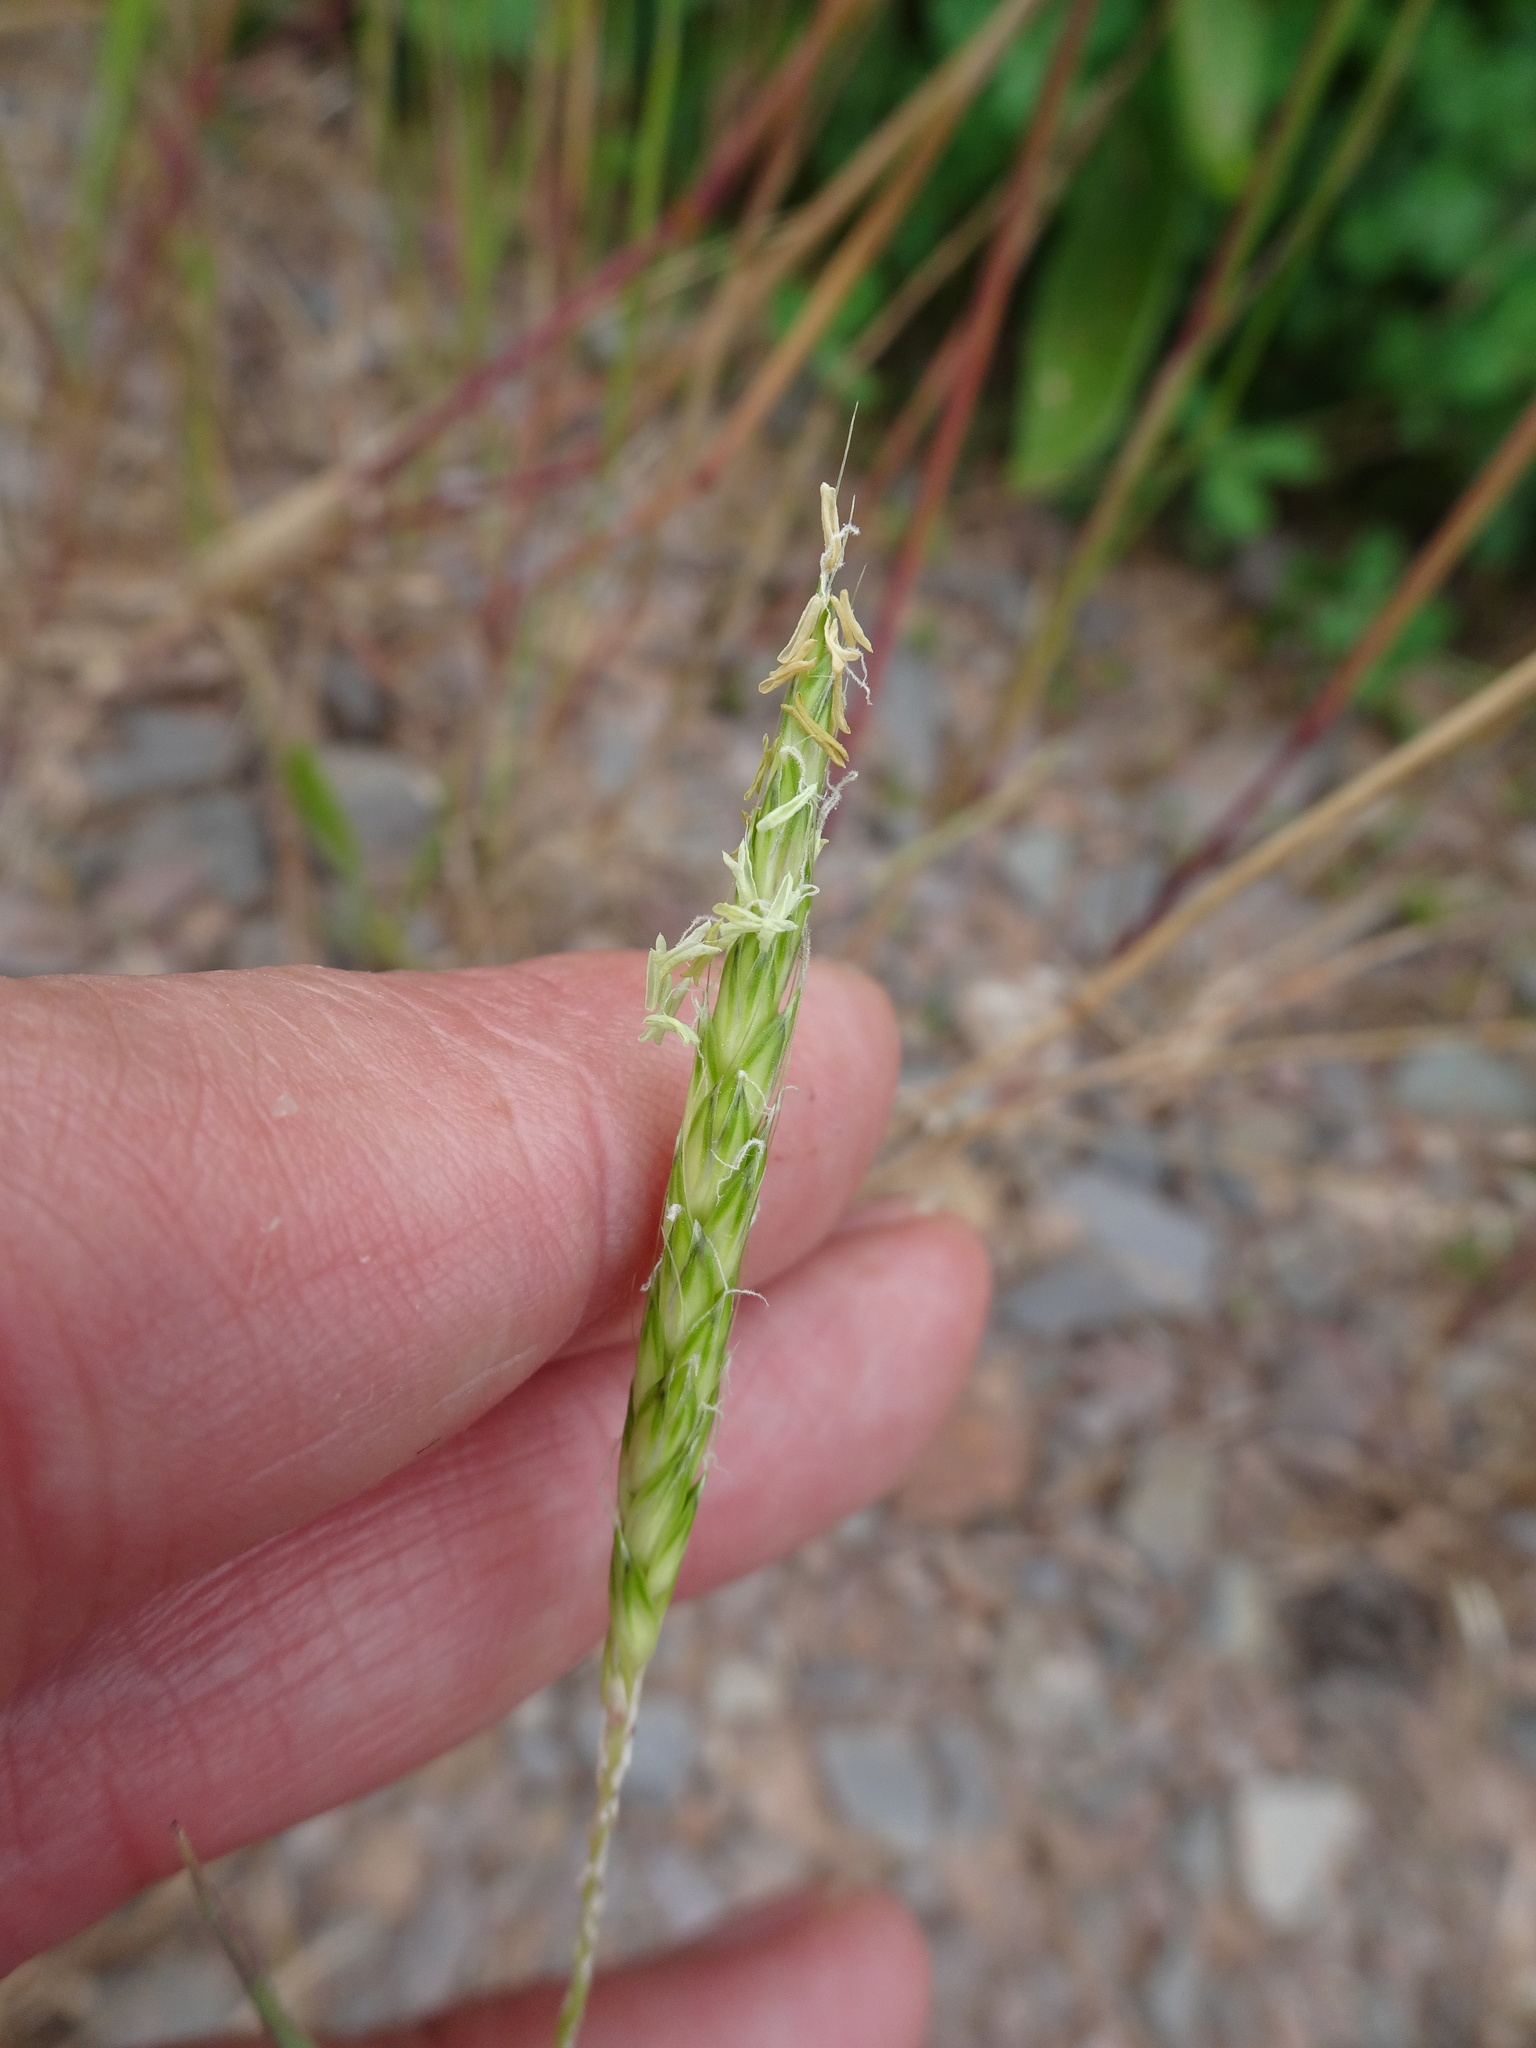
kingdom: Plantae
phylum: Tracheophyta
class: Liliopsida
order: Poales
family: Poaceae
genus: Alopecurus
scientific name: Alopecurus myosuroides
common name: Black-grass
